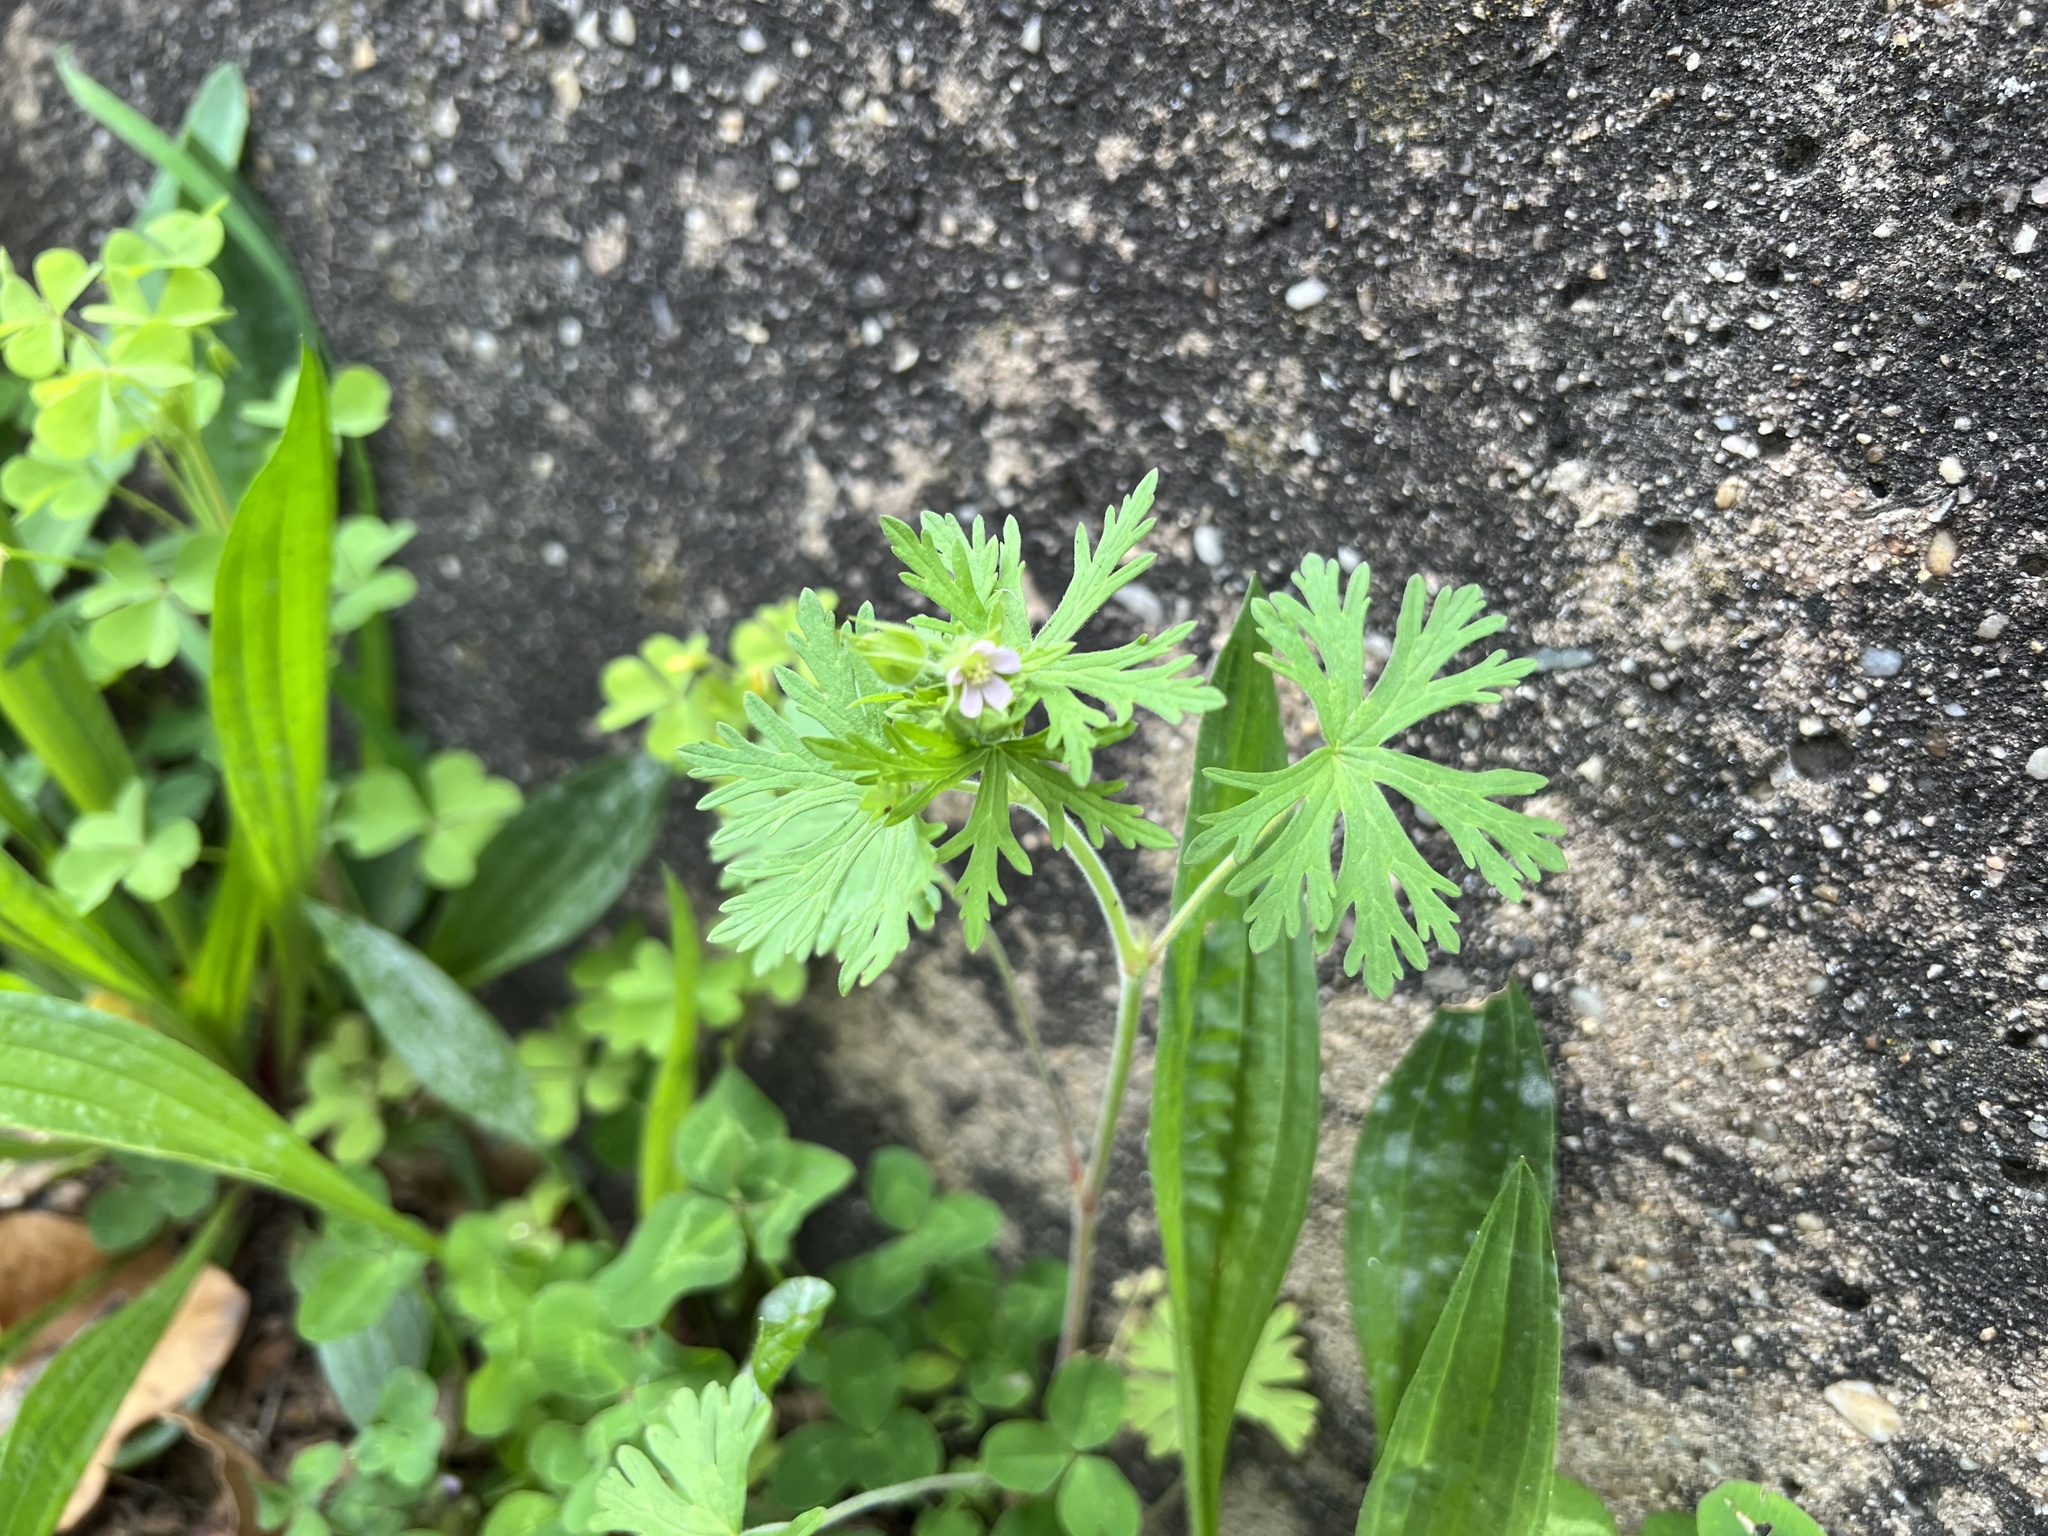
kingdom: Plantae
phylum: Tracheophyta
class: Magnoliopsida
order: Geraniales
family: Geraniaceae
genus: Geranium
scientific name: Geranium carolinianum
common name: Carolina crane's-bill
